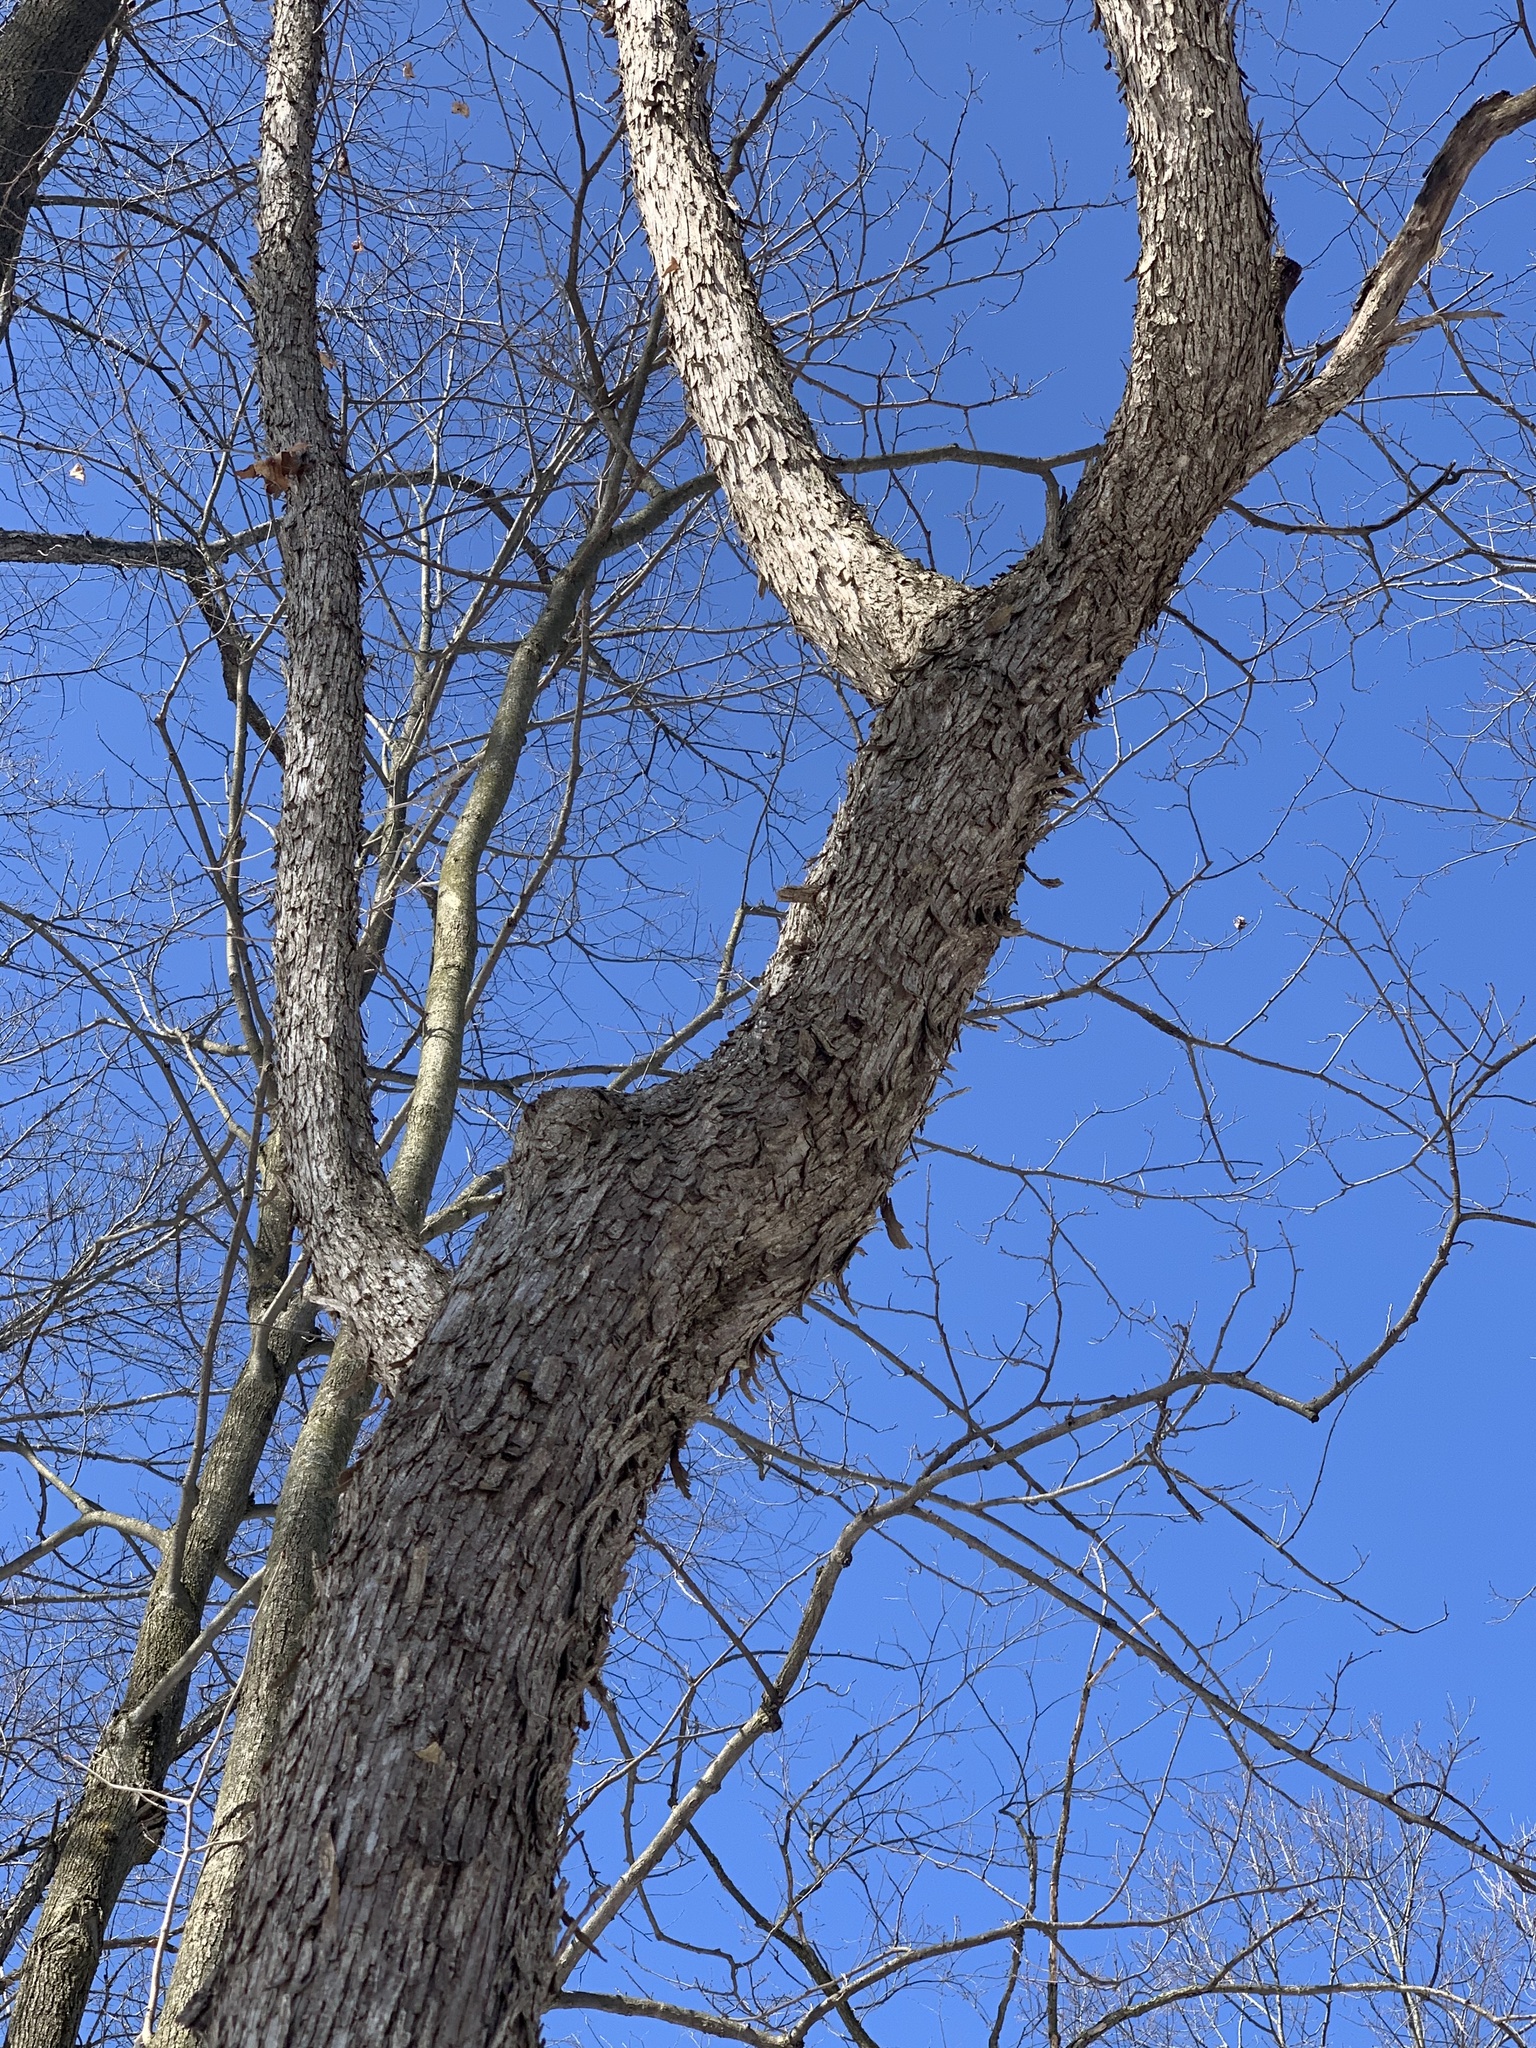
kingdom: Plantae
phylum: Tracheophyta
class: Magnoliopsida
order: Fagales
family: Betulaceae
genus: Ostrya
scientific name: Ostrya virginiana
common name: Ironwood
